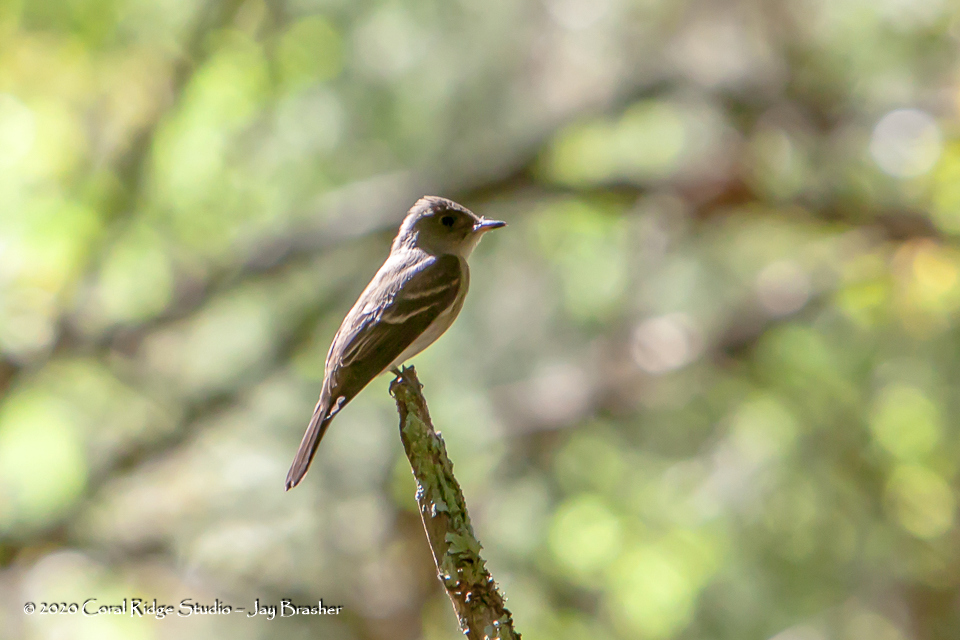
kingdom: Animalia
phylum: Chordata
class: Aves
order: Passeriformes
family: Tyrannidae
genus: Contopus
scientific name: Contopus virens
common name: Eastern wood-pewee
